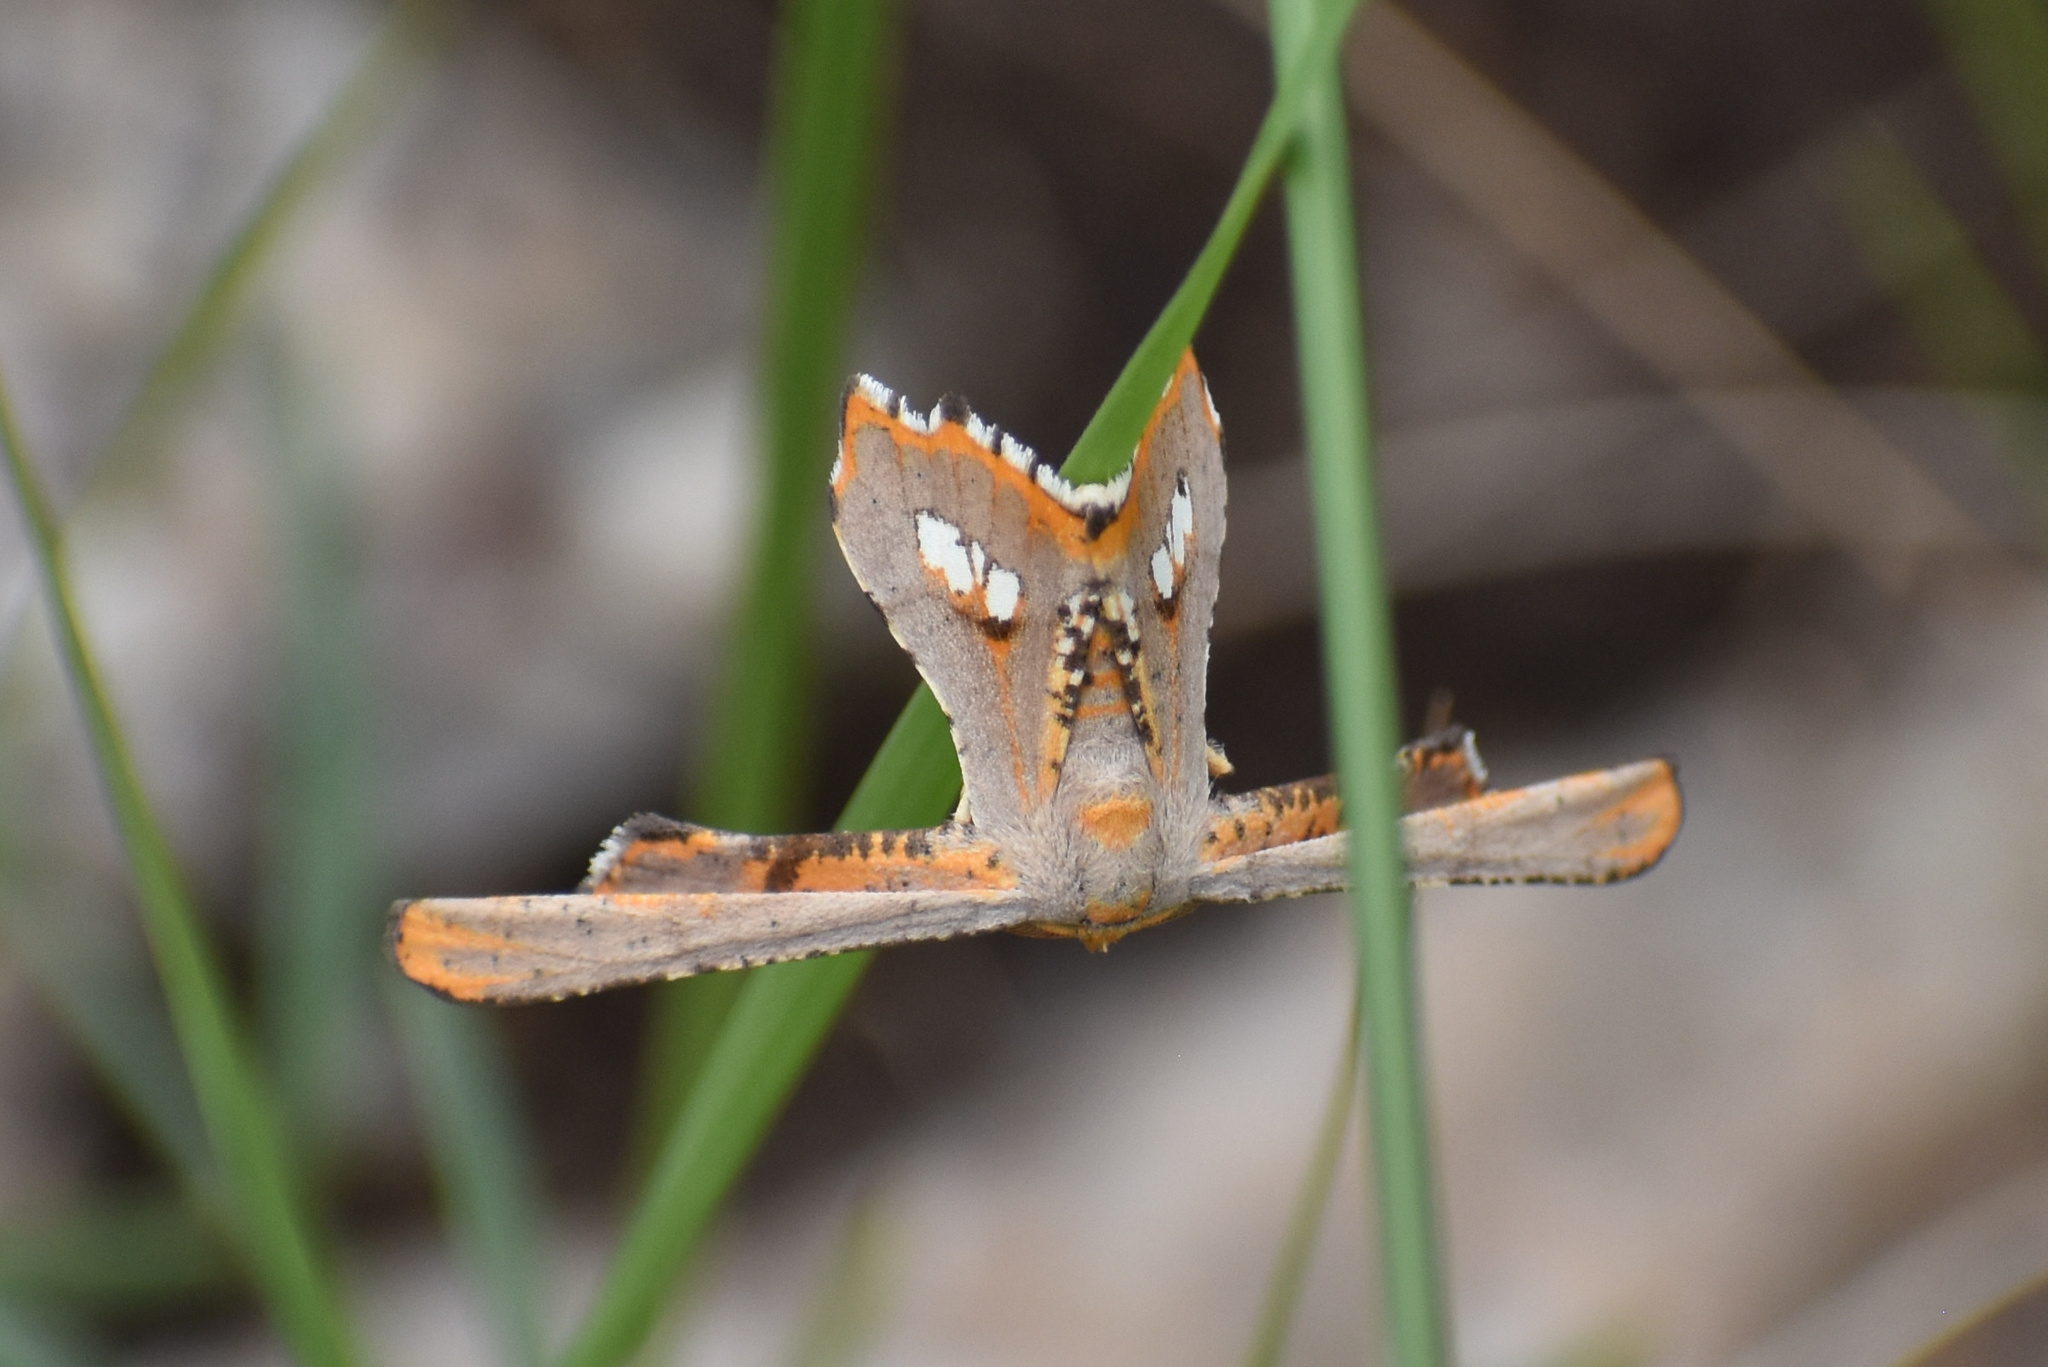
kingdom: Animalia
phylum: Arthropoda
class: Insecta
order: Lepidoptera
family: Geometridae
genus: Coenina
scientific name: Coenina poecilaria
